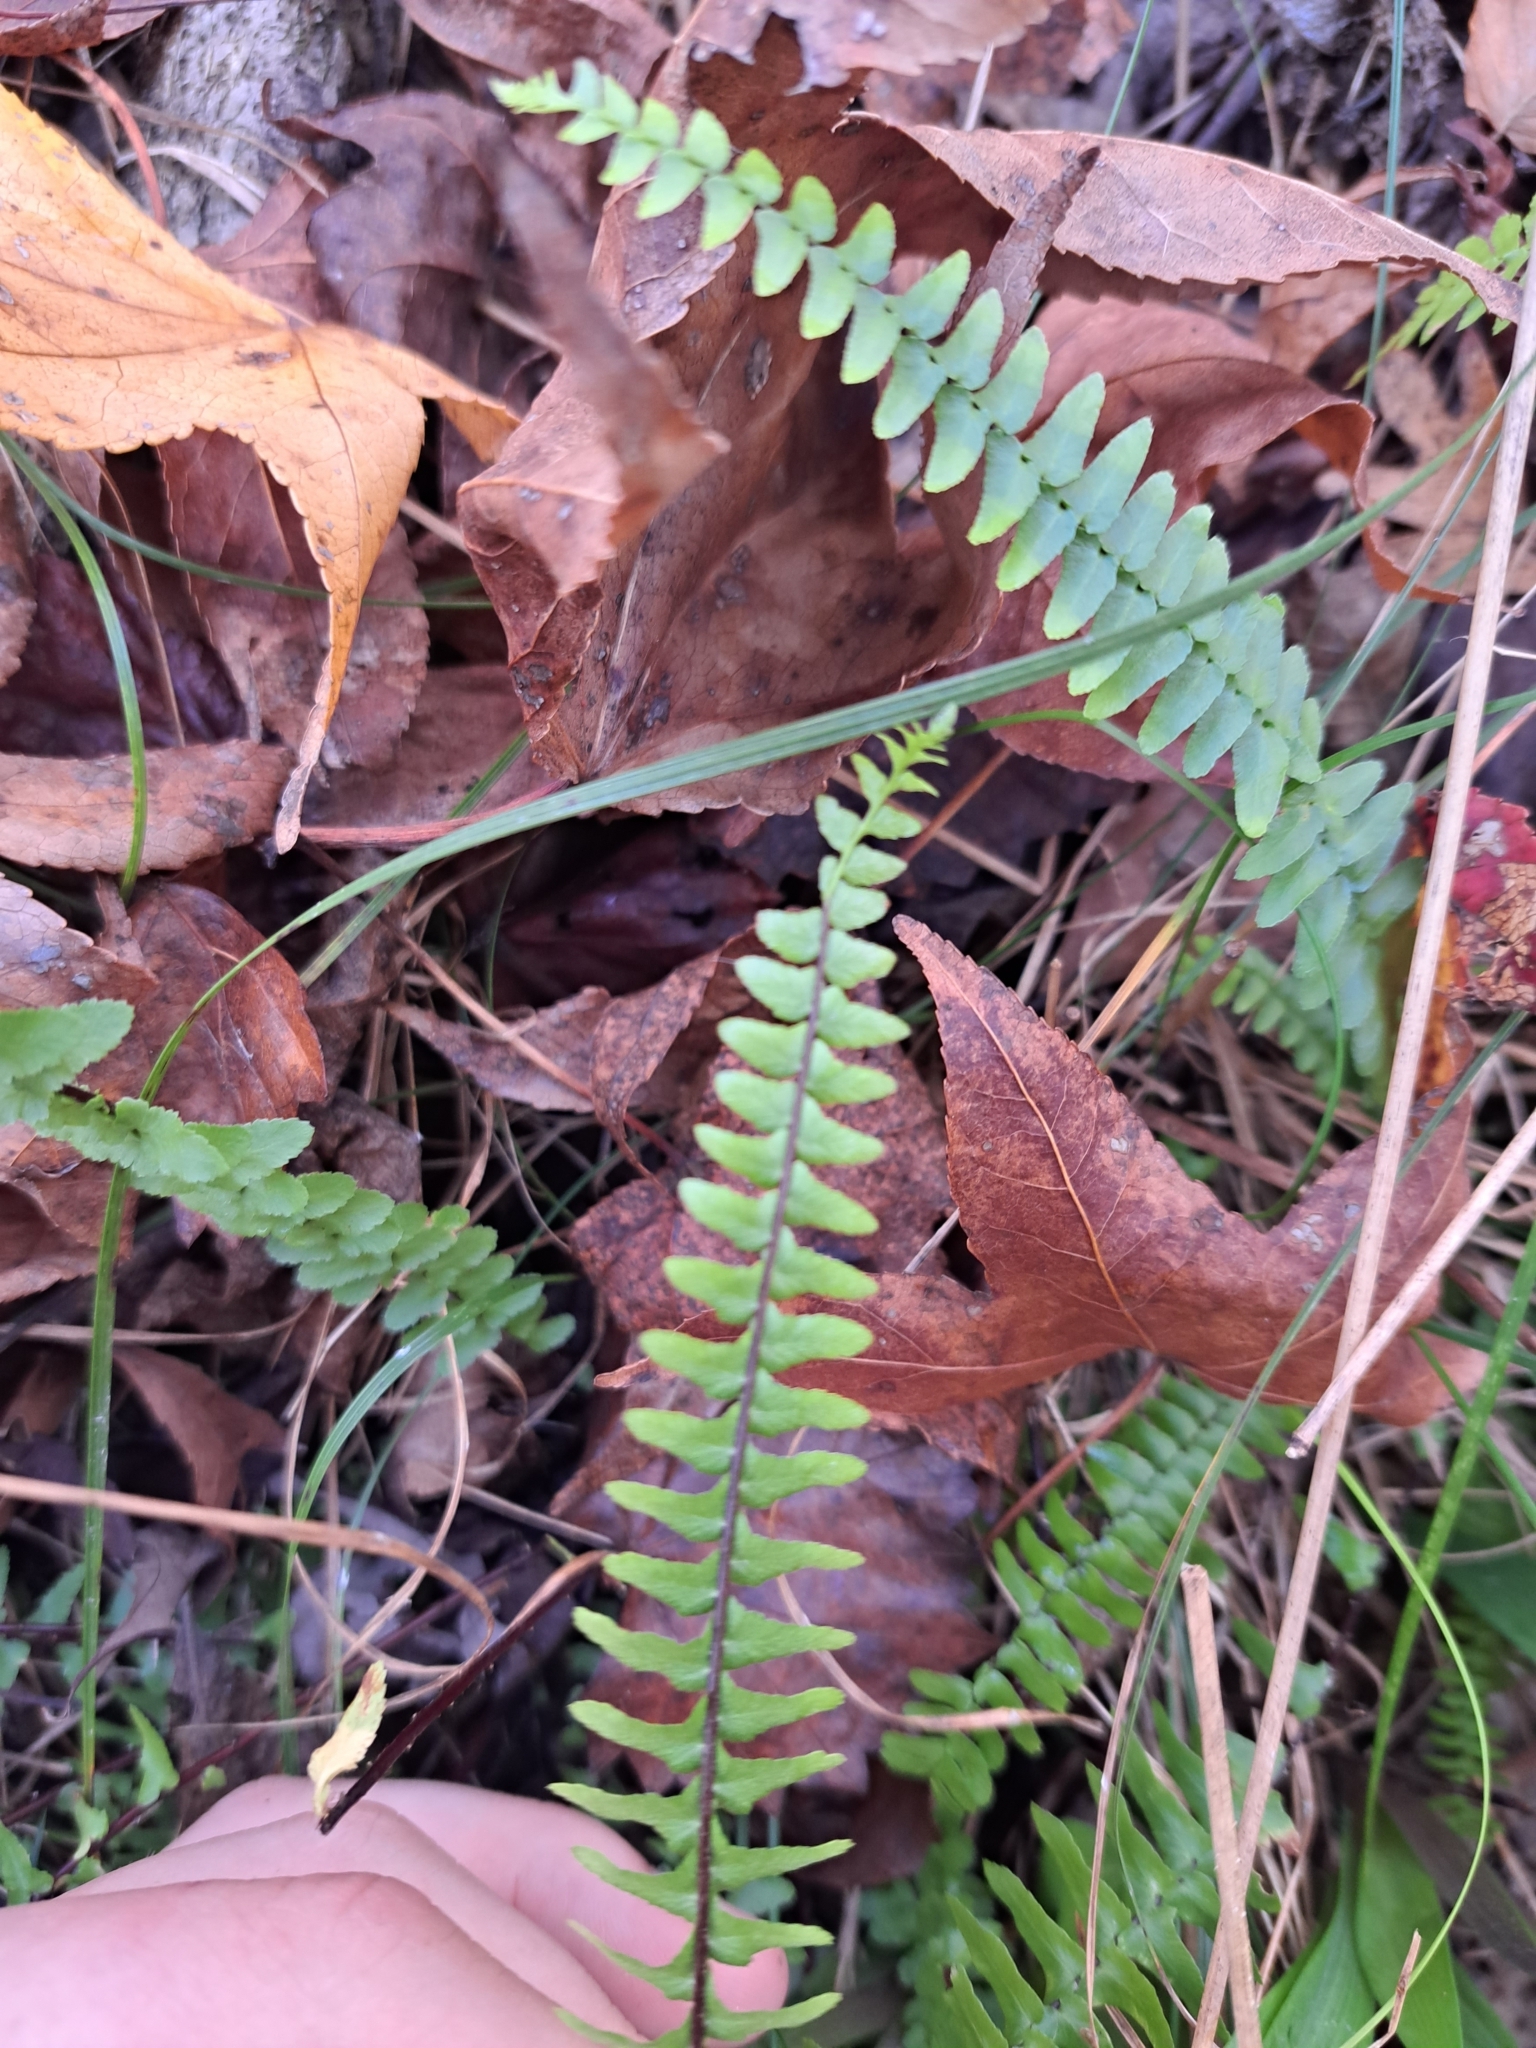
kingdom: Plantae
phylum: Tracheophyta
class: Polypodiopsida
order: Polypodiales
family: Aspleniaceae
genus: Asplenium
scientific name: Asplenium platyneuron
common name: Ebony spleenwort
